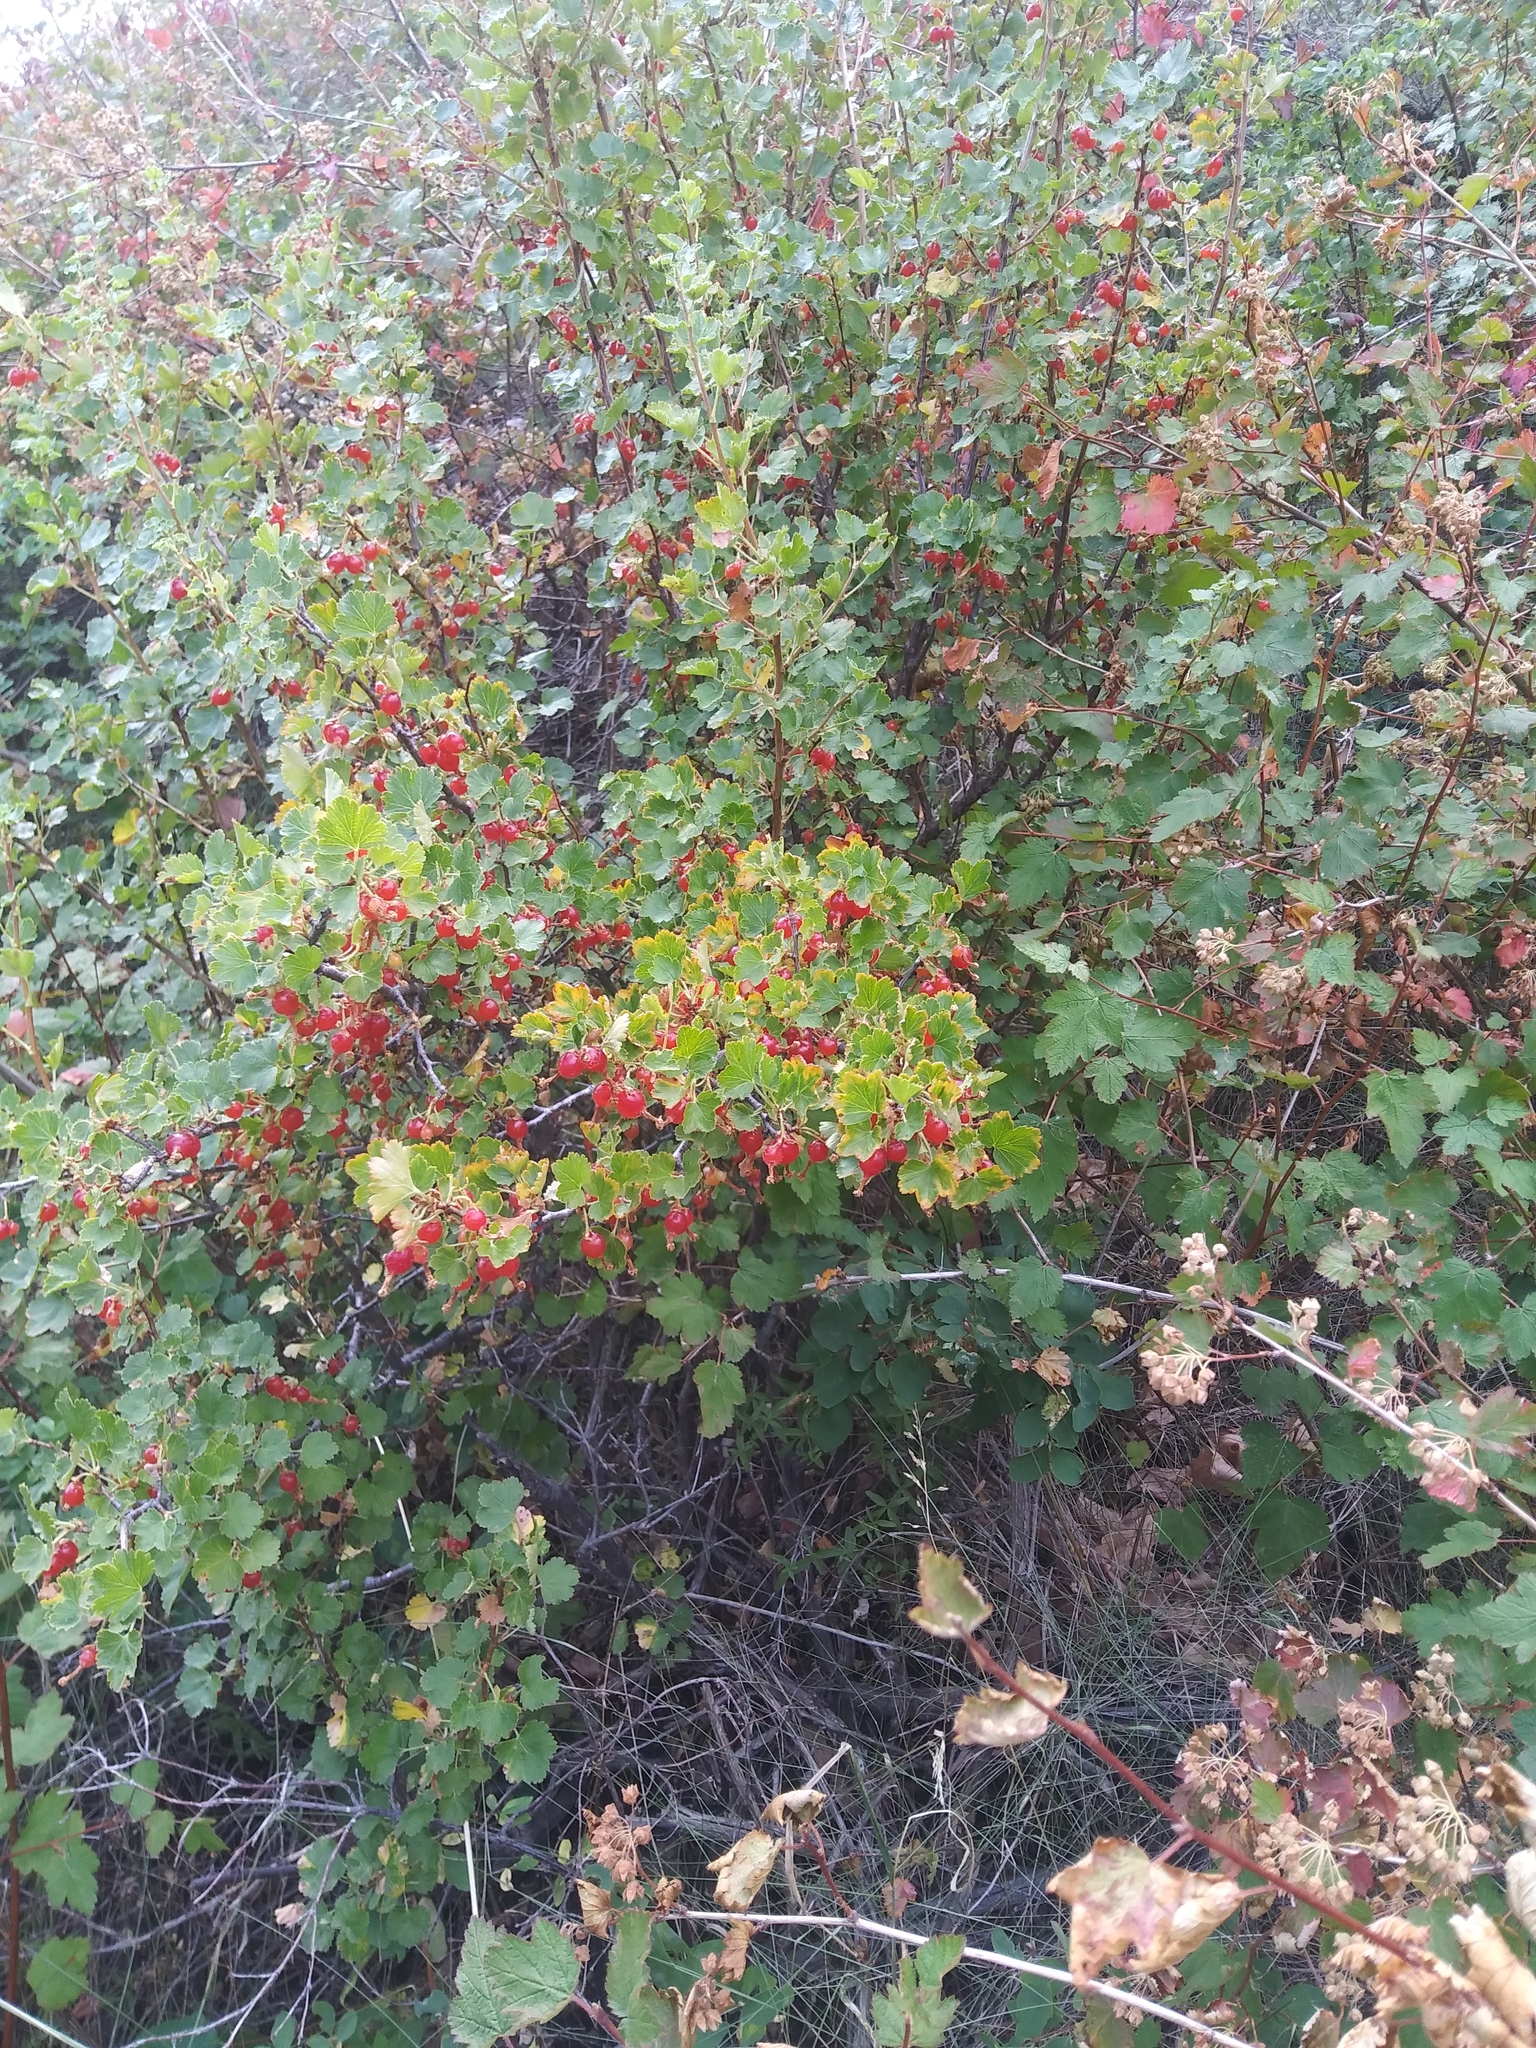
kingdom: Plantae
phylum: Tracheophyta
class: Magnoliopsida
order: Saxifragales
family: Grossulariaceae
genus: Ribes
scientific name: Ribes cereum
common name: Wax currant
